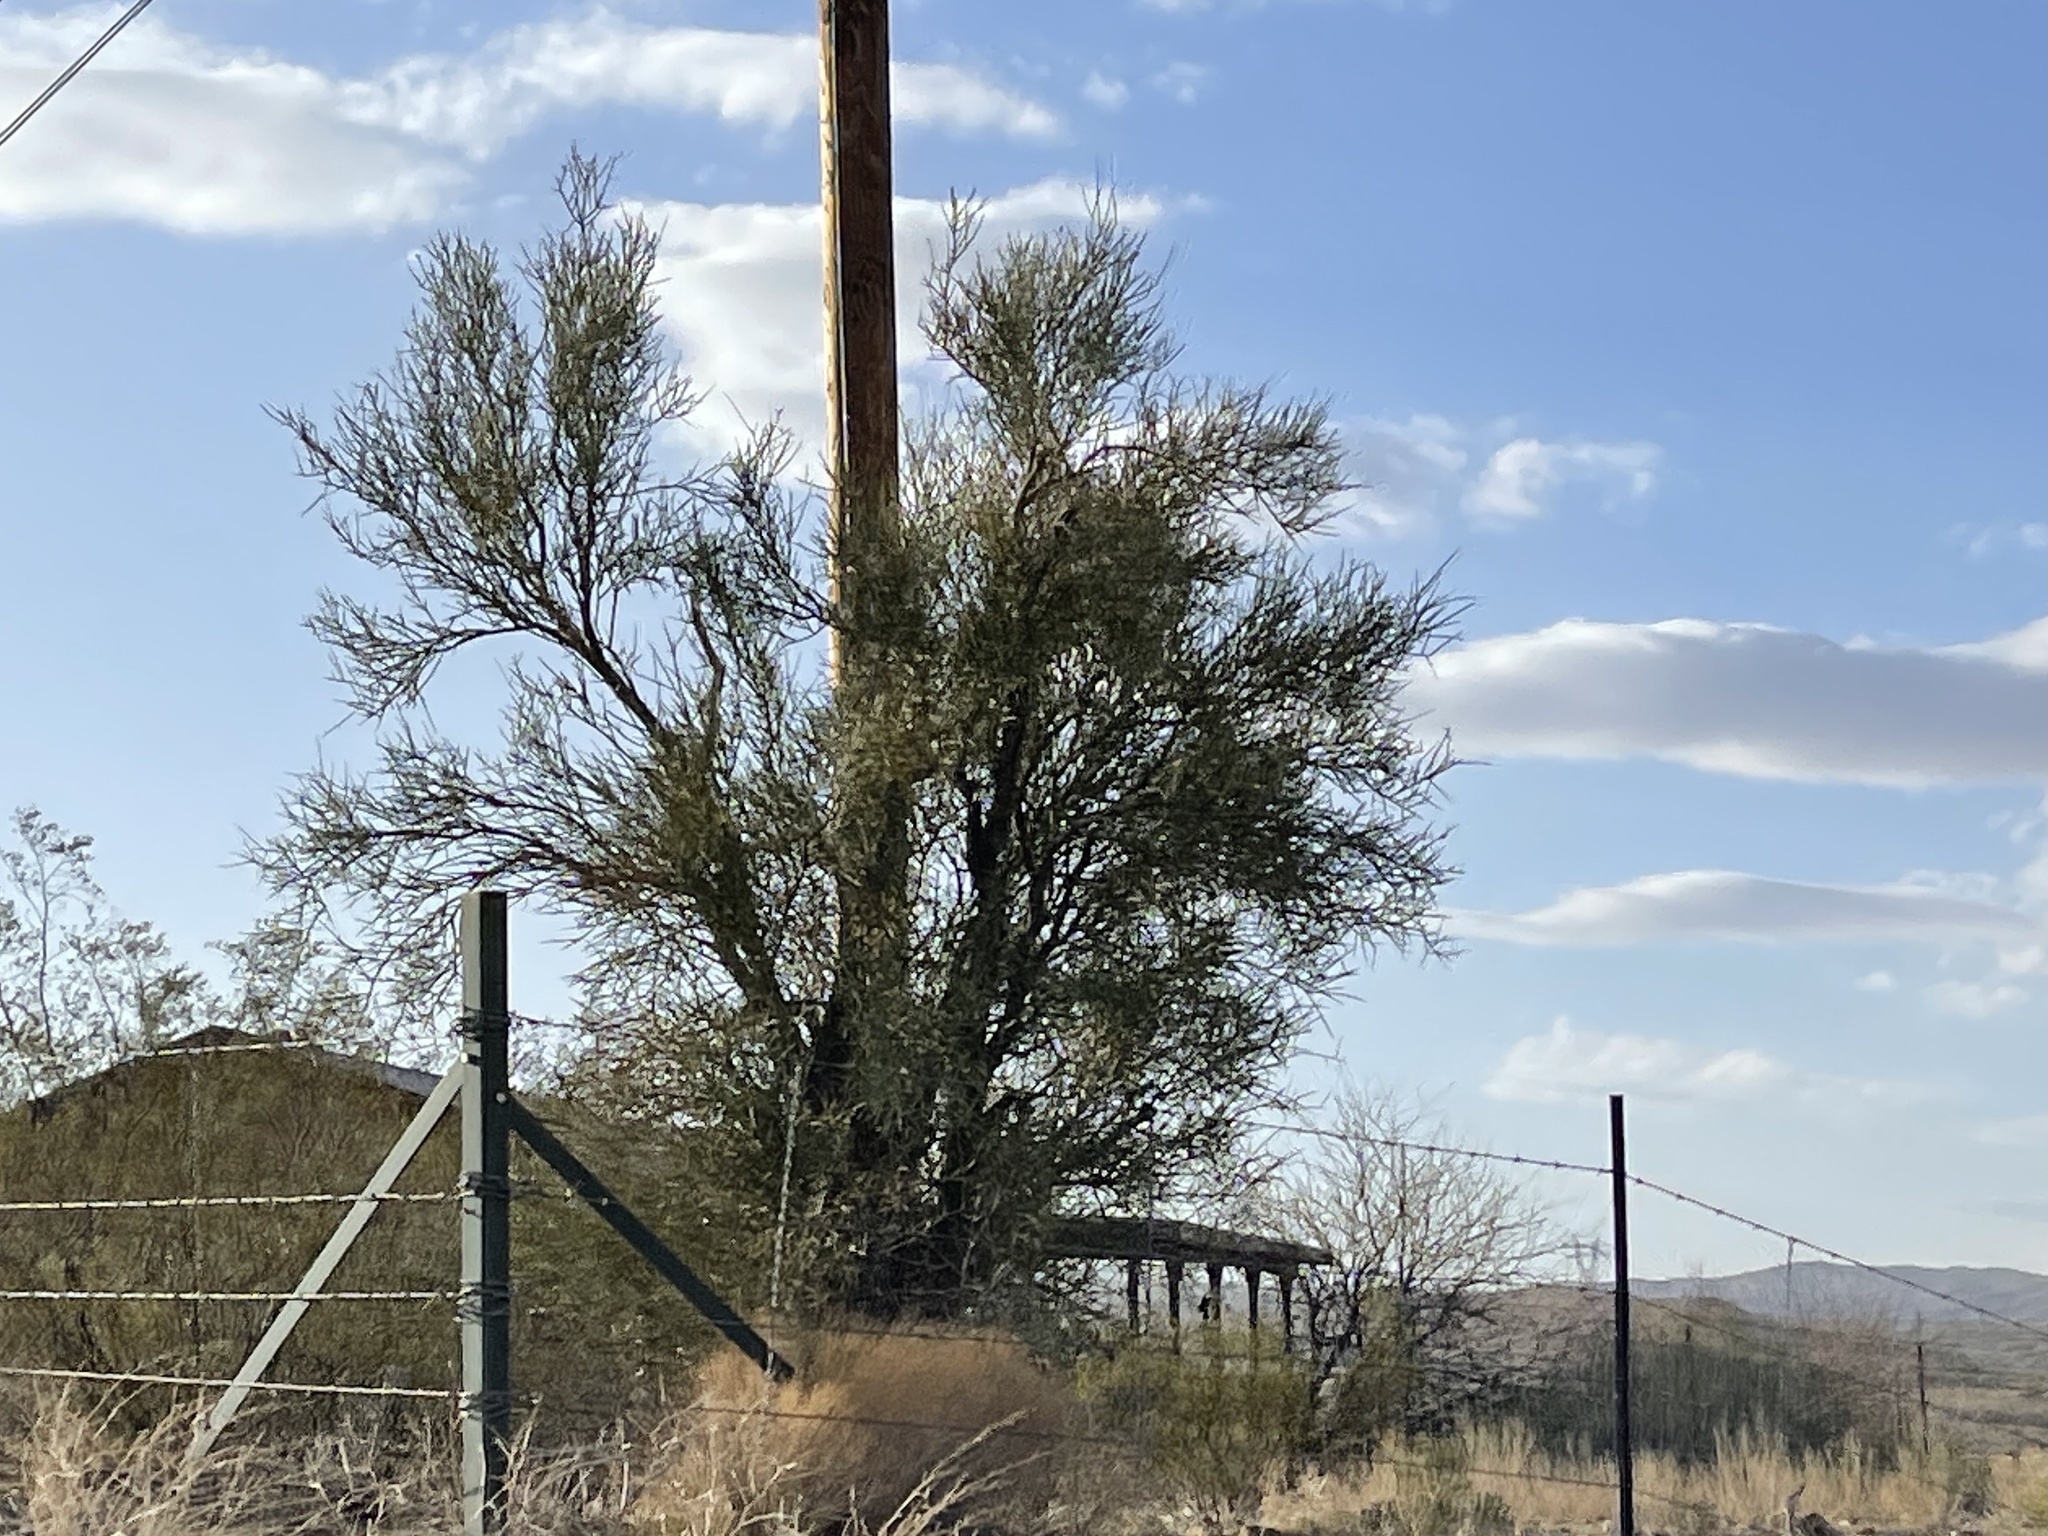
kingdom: Plantae
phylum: Tracheophyta
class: Magnoliopsida
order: Celastrales
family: Celastraceae
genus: Canotia
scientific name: Canotia holacantha
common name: Crucifixion thorns
